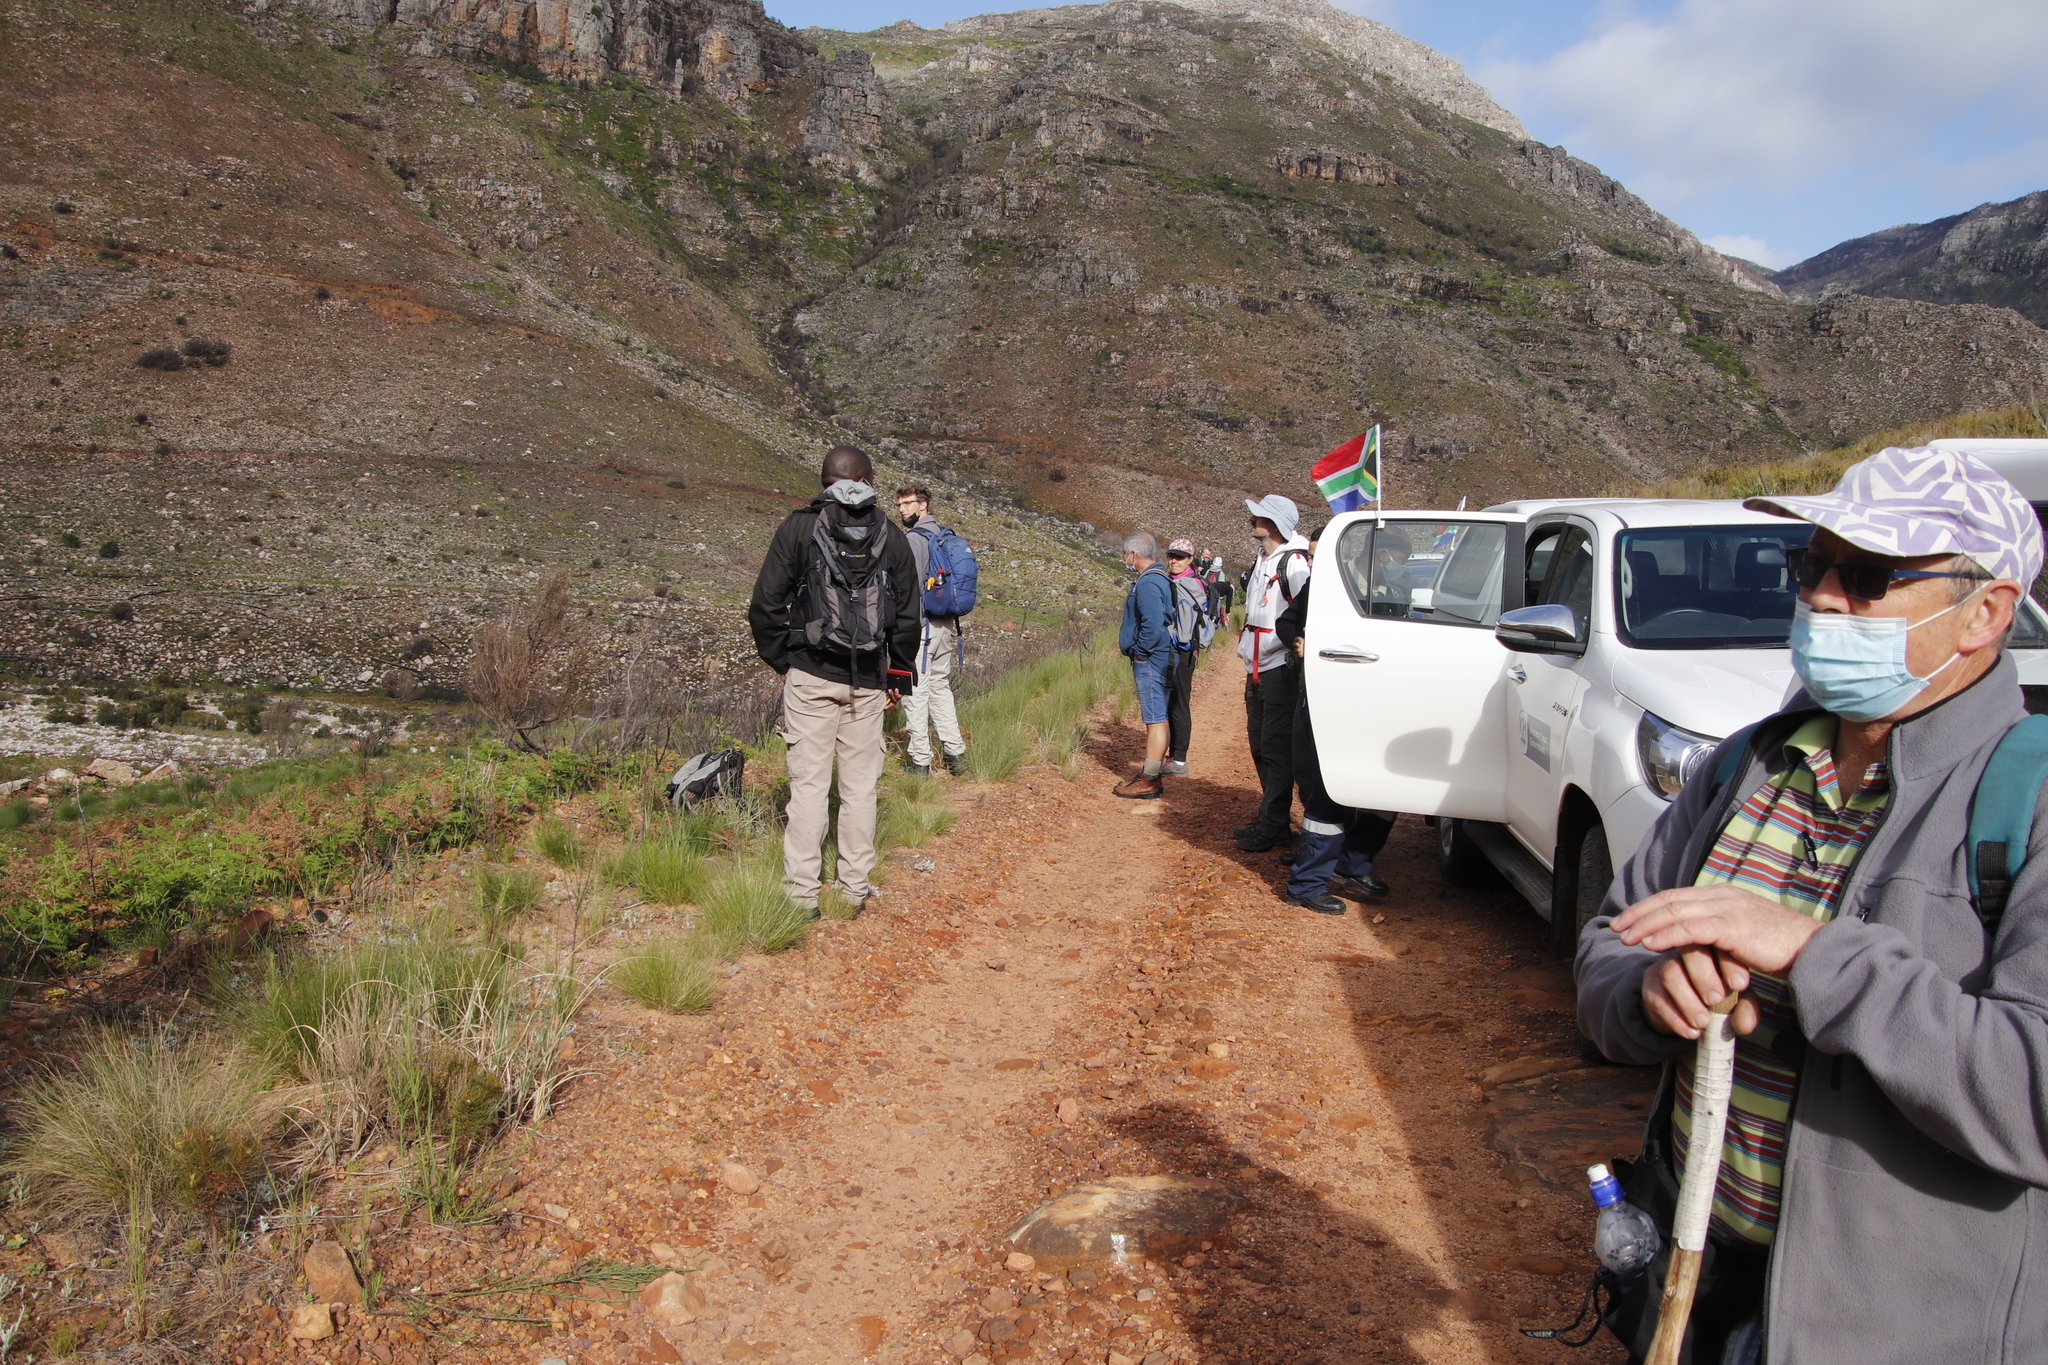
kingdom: Plantae
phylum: Tracheophyta
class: Polypodiopsida
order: Polypodiales
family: Dennstaedtiaceae
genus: Pteridium
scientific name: Pteridium aquilinum
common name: Bracken
